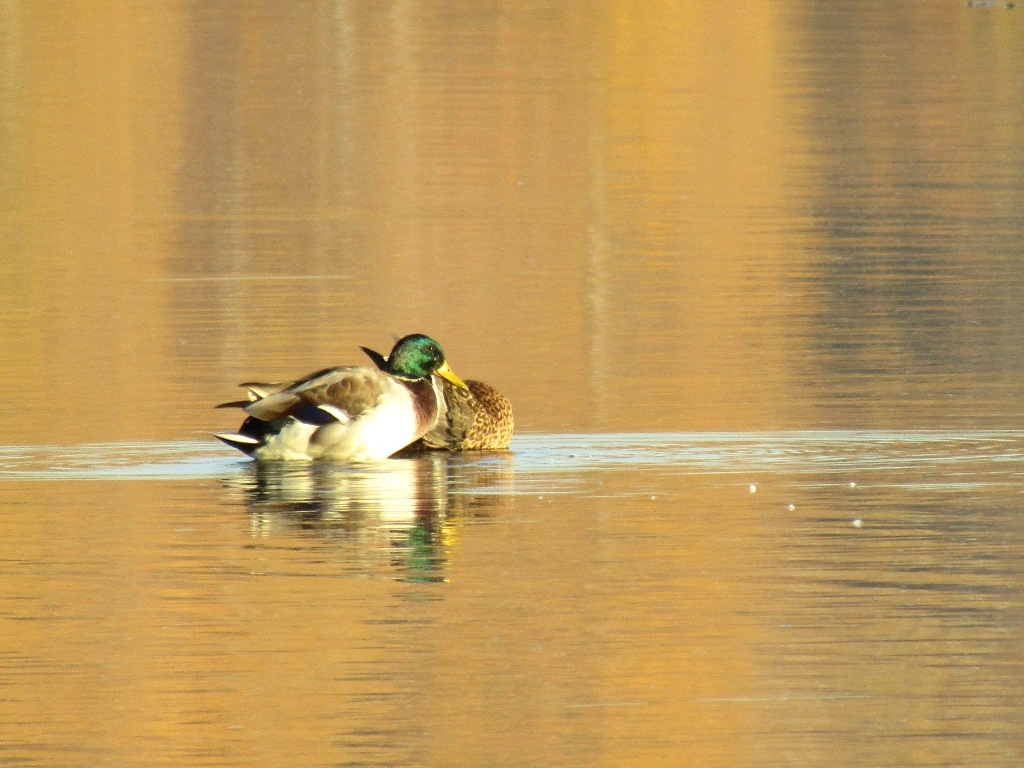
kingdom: Animalia
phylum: Chordata
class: Aves
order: Anseriformes
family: Anatidae
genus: Anas
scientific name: Anas platyrhynchos
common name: Mallard
